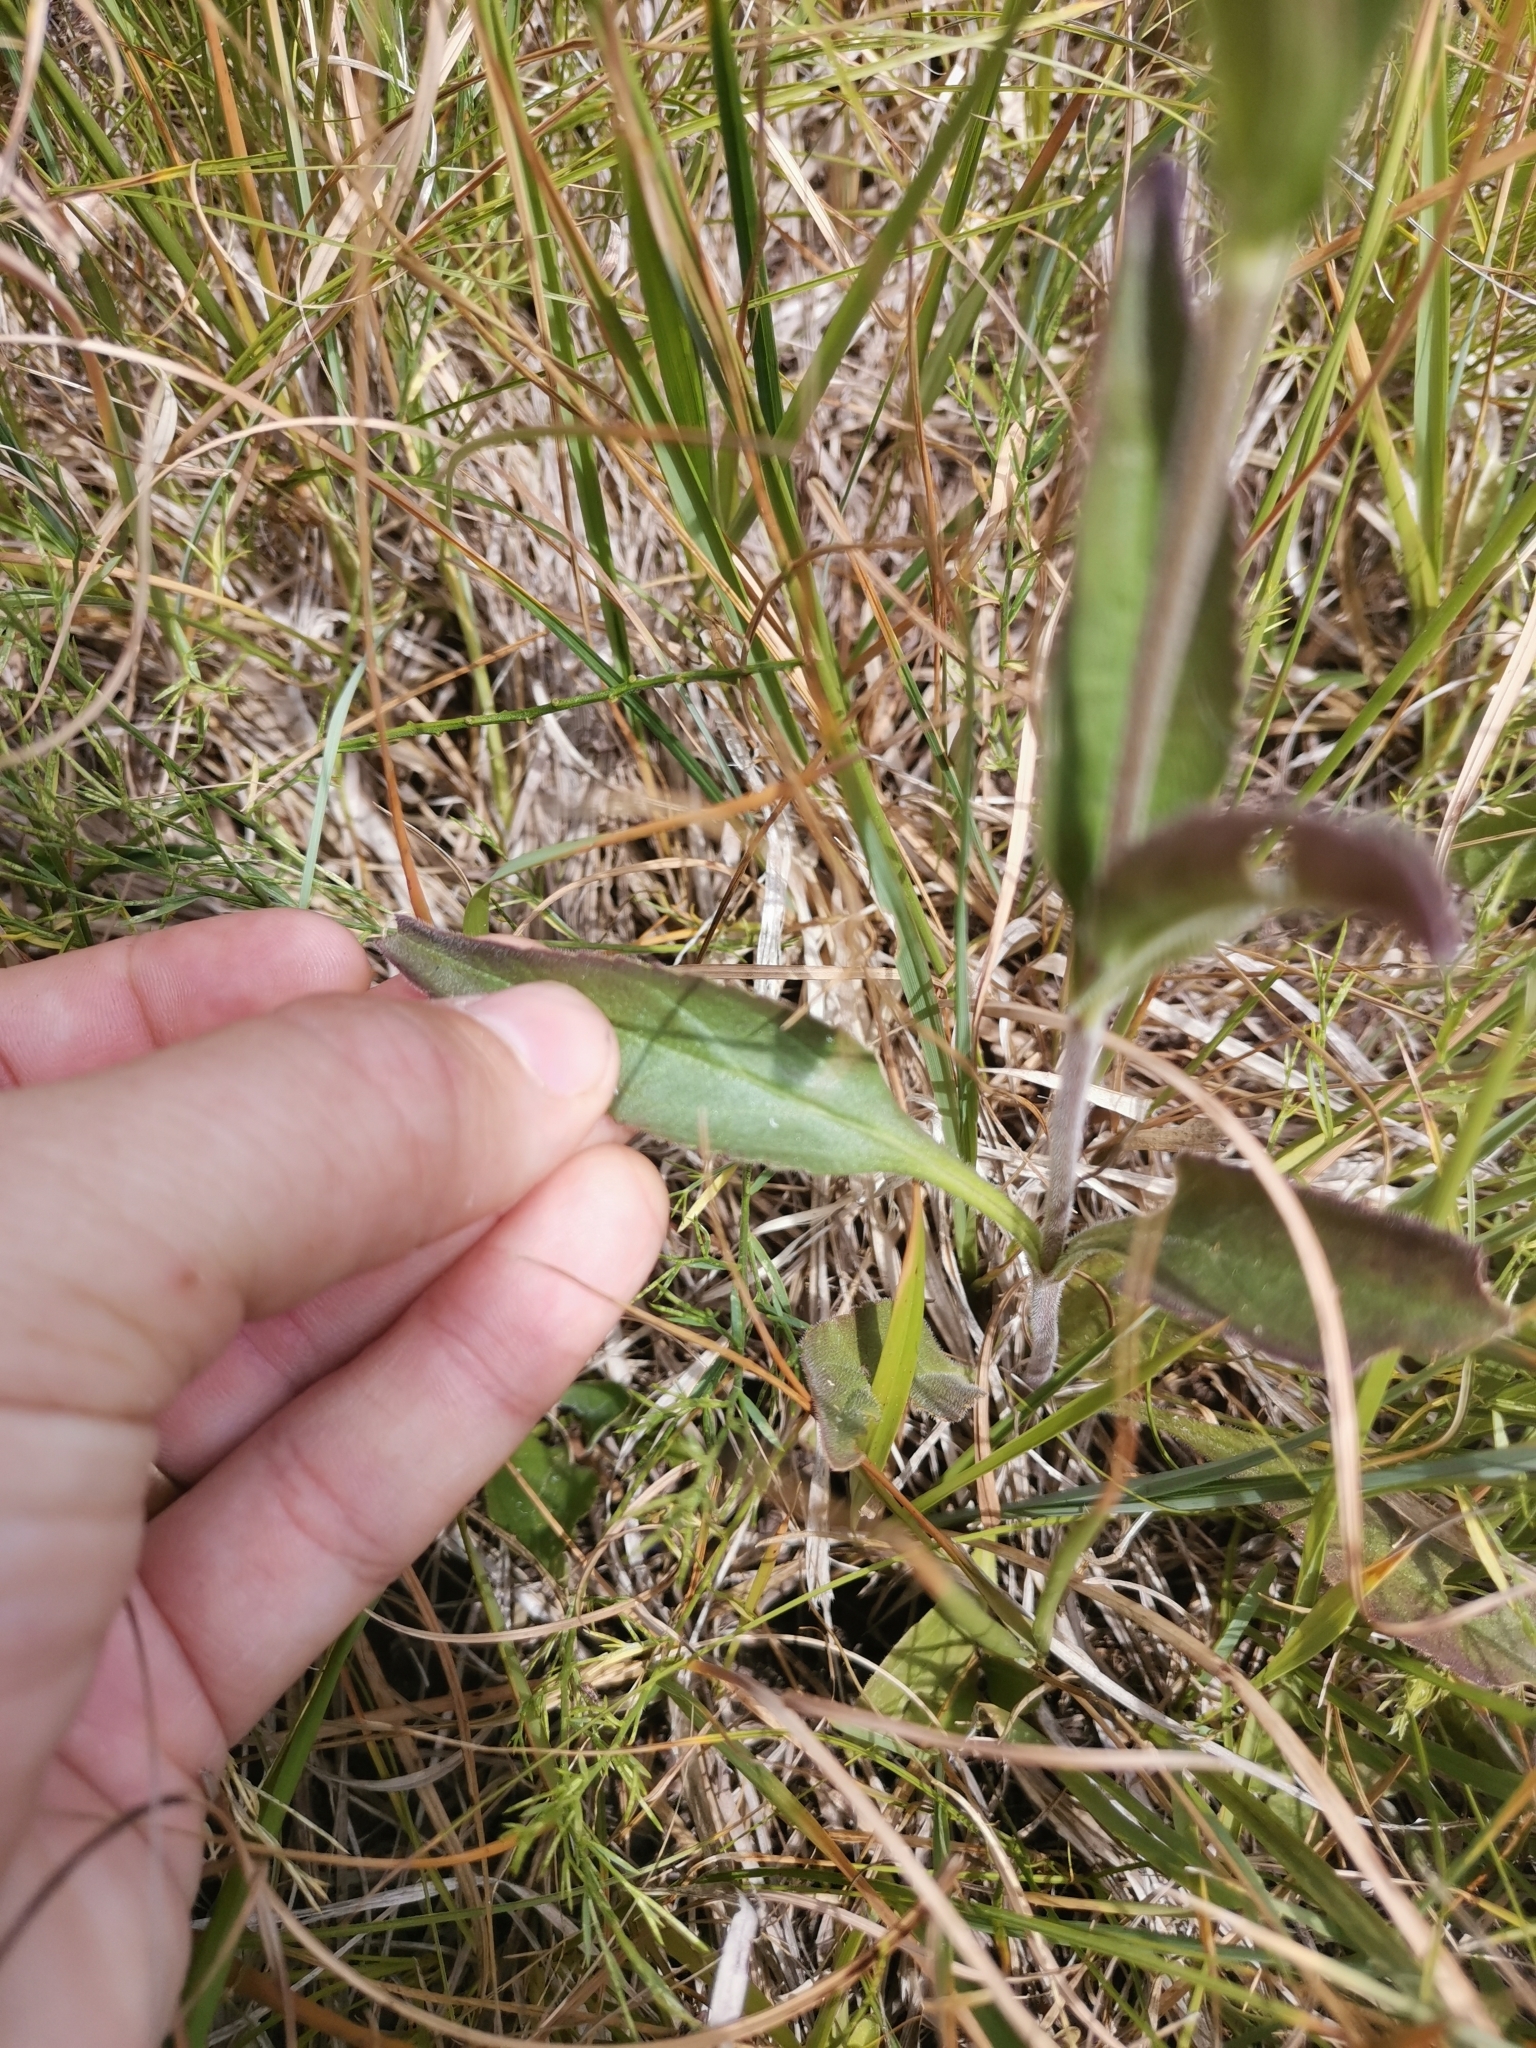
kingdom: Plantae
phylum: Tracheophyta
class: Magnoliopsida
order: Lamiales
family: Plantaginaceae
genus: Veronica
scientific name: Veronica barrelieri
